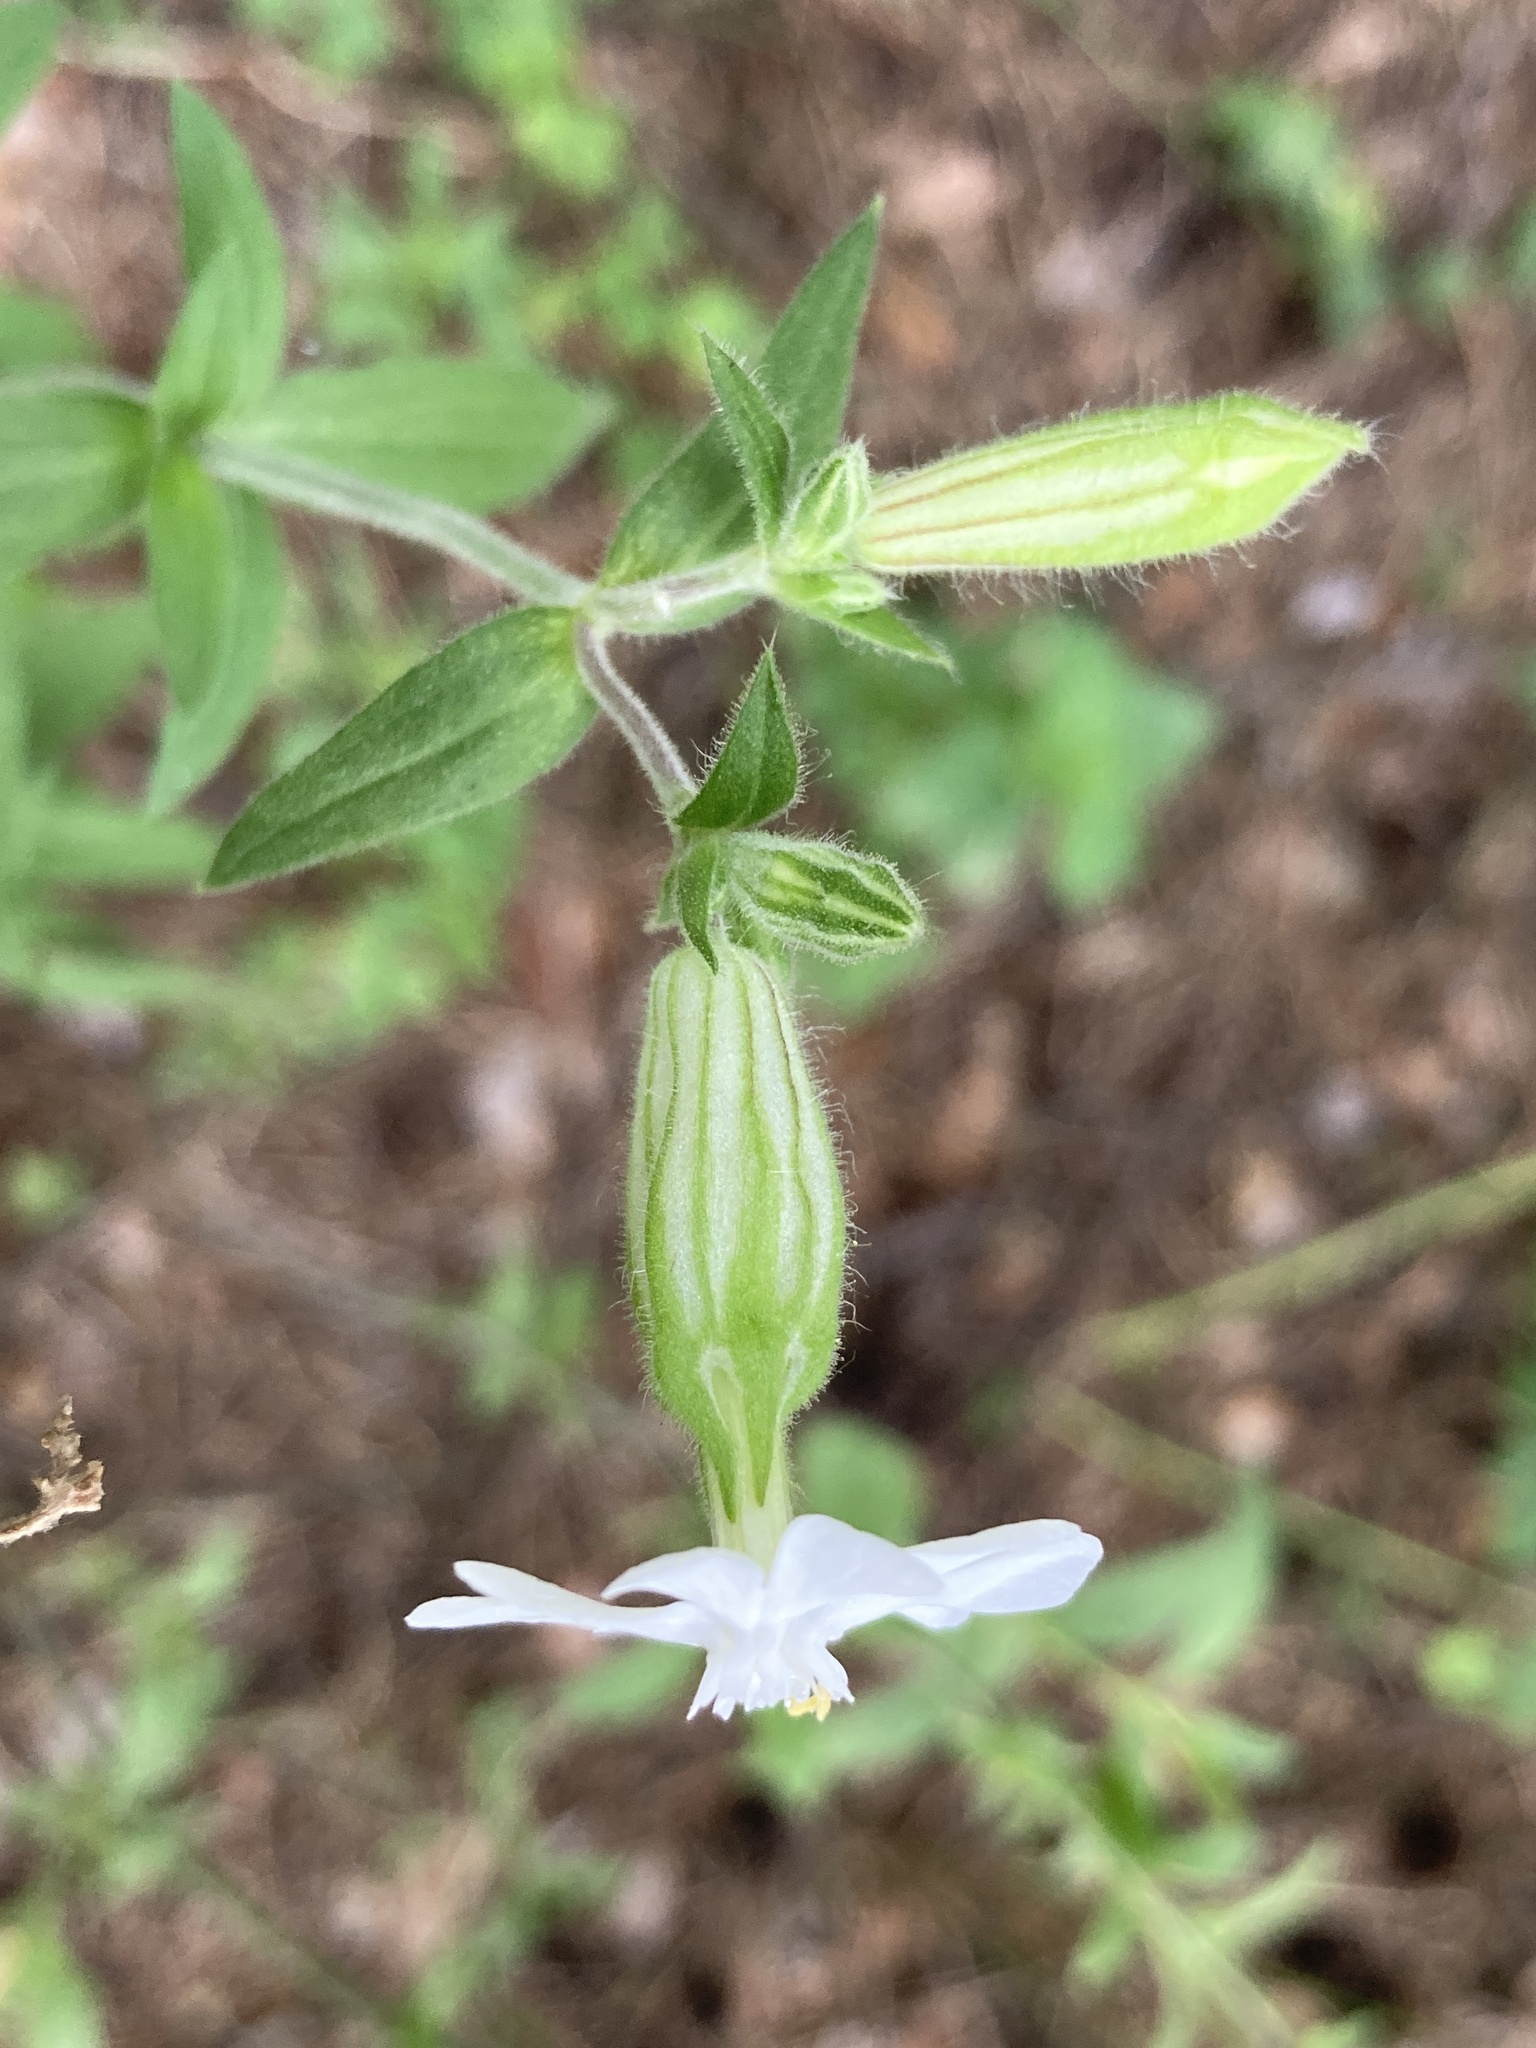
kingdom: Plantae
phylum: Tracheophyta
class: Magnoliopsida
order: Caryophyllales
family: Caryophyllaceae
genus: Silene
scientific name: Silene latifolia
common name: White campion
